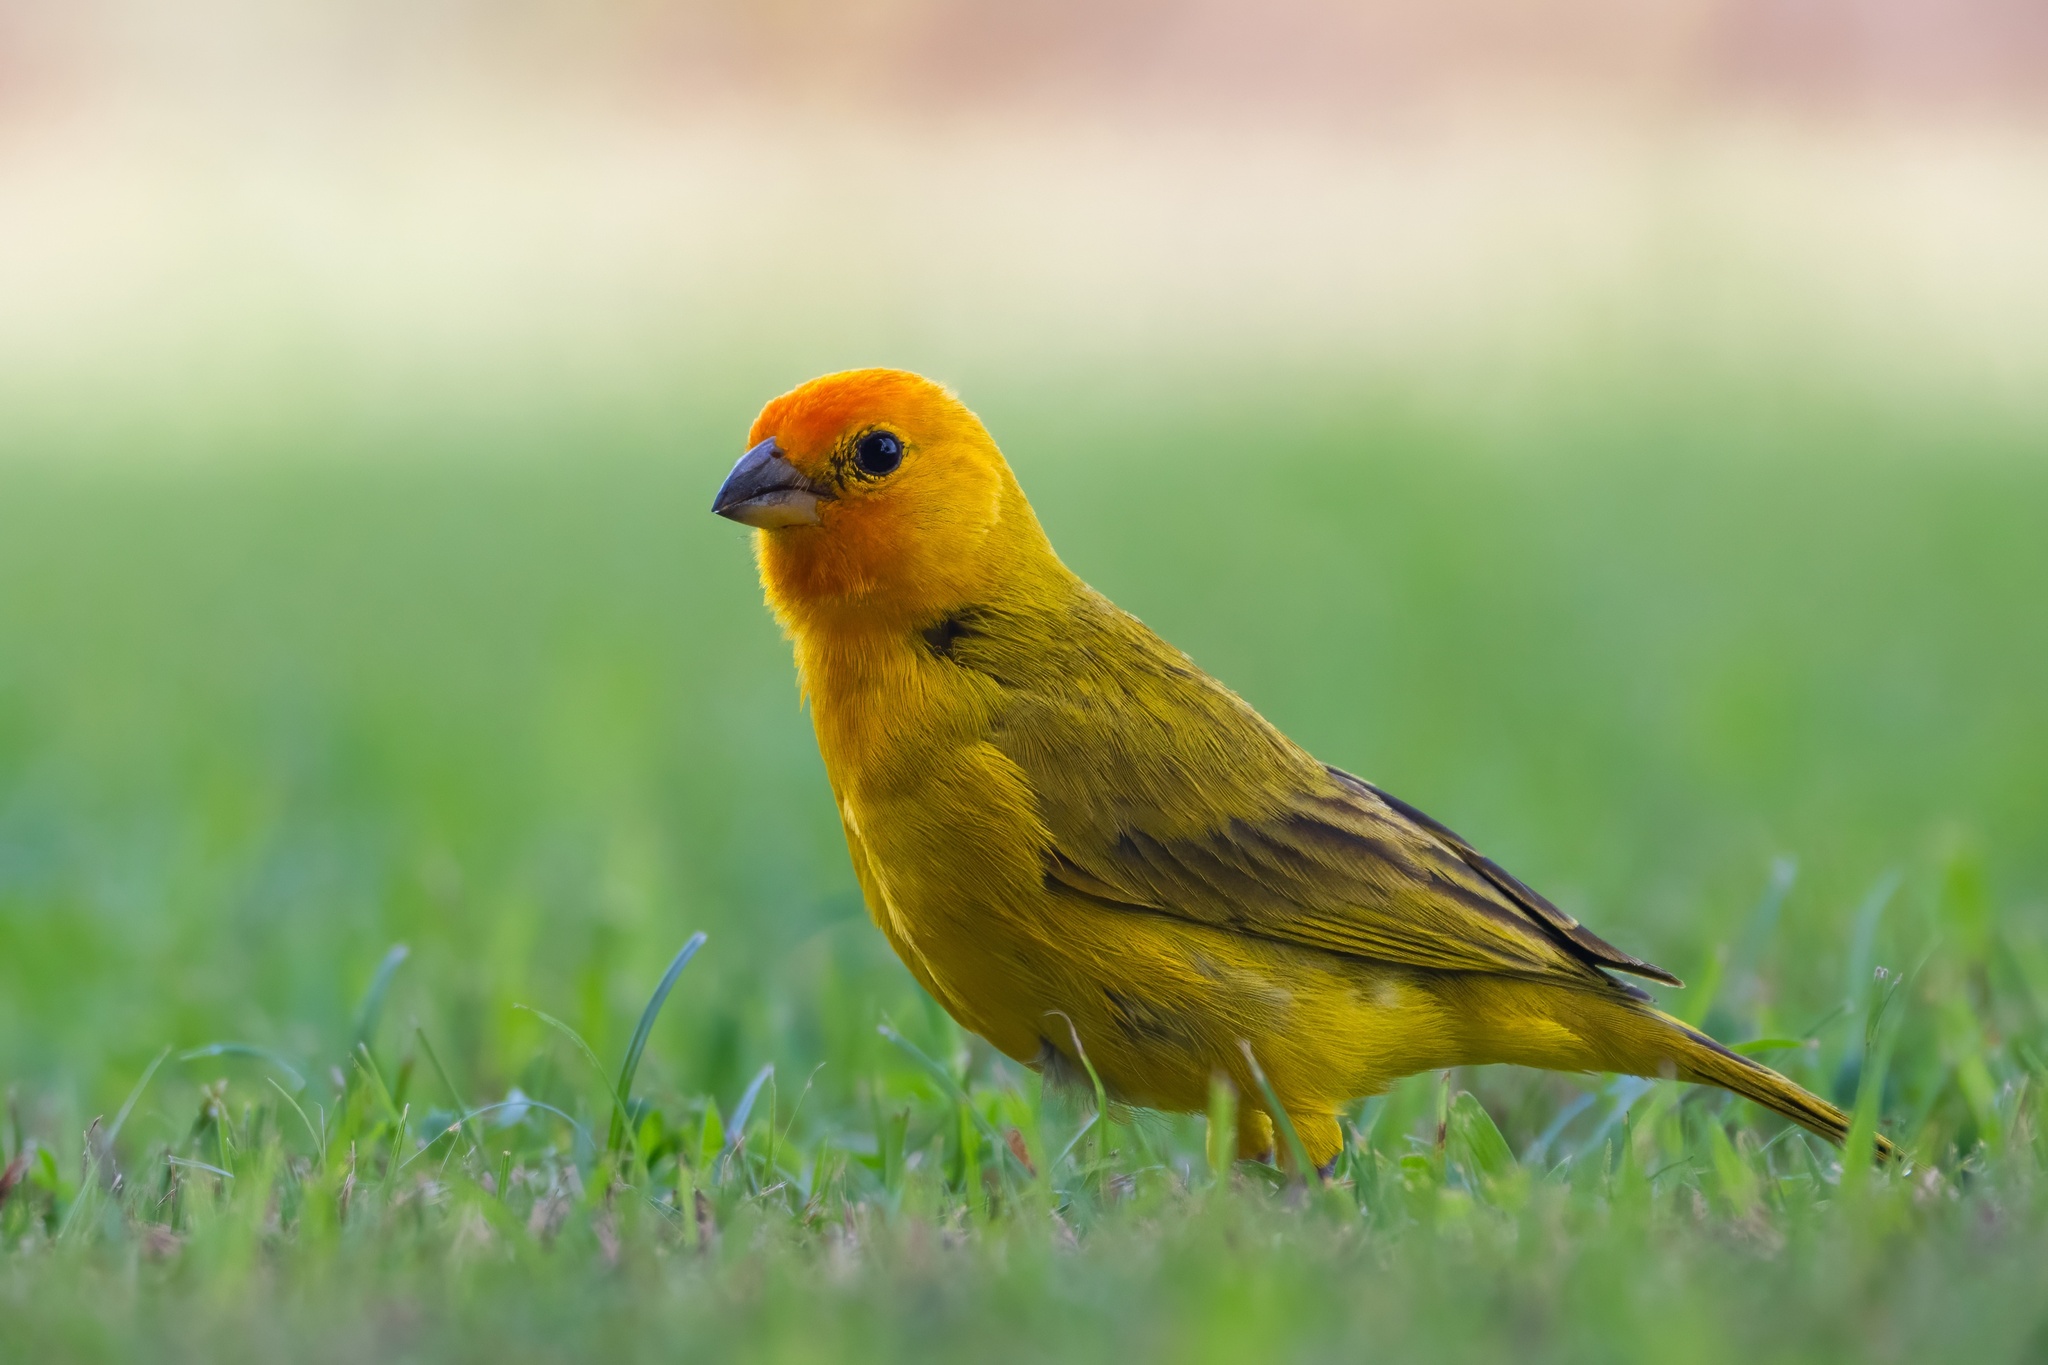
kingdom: Animalia
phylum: Chordata
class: Aves
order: Passeriformes
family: Thraupidae
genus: Sicalis
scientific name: Sicalis flaveola
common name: Saffron finch
